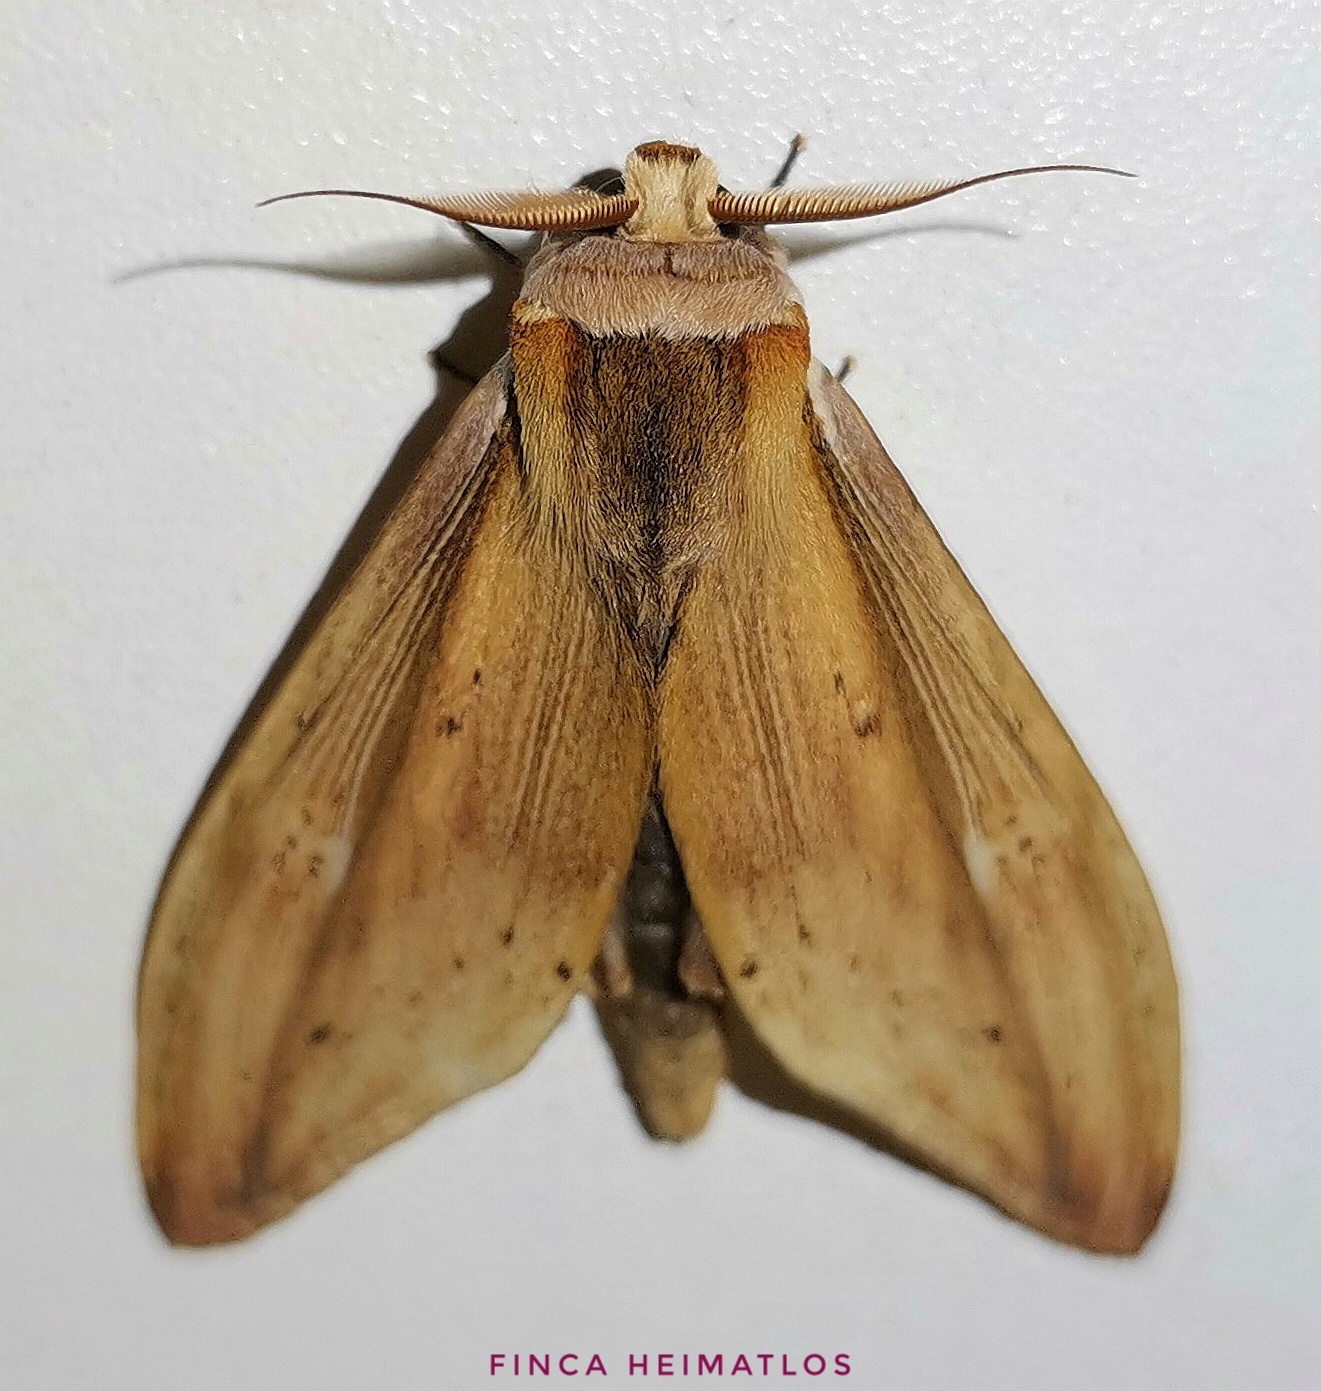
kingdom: Animalia
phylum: Arthropoda
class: Insecta
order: Lepidoptera
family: Notodontidae
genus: Truncaptera
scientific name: Truncaptera
